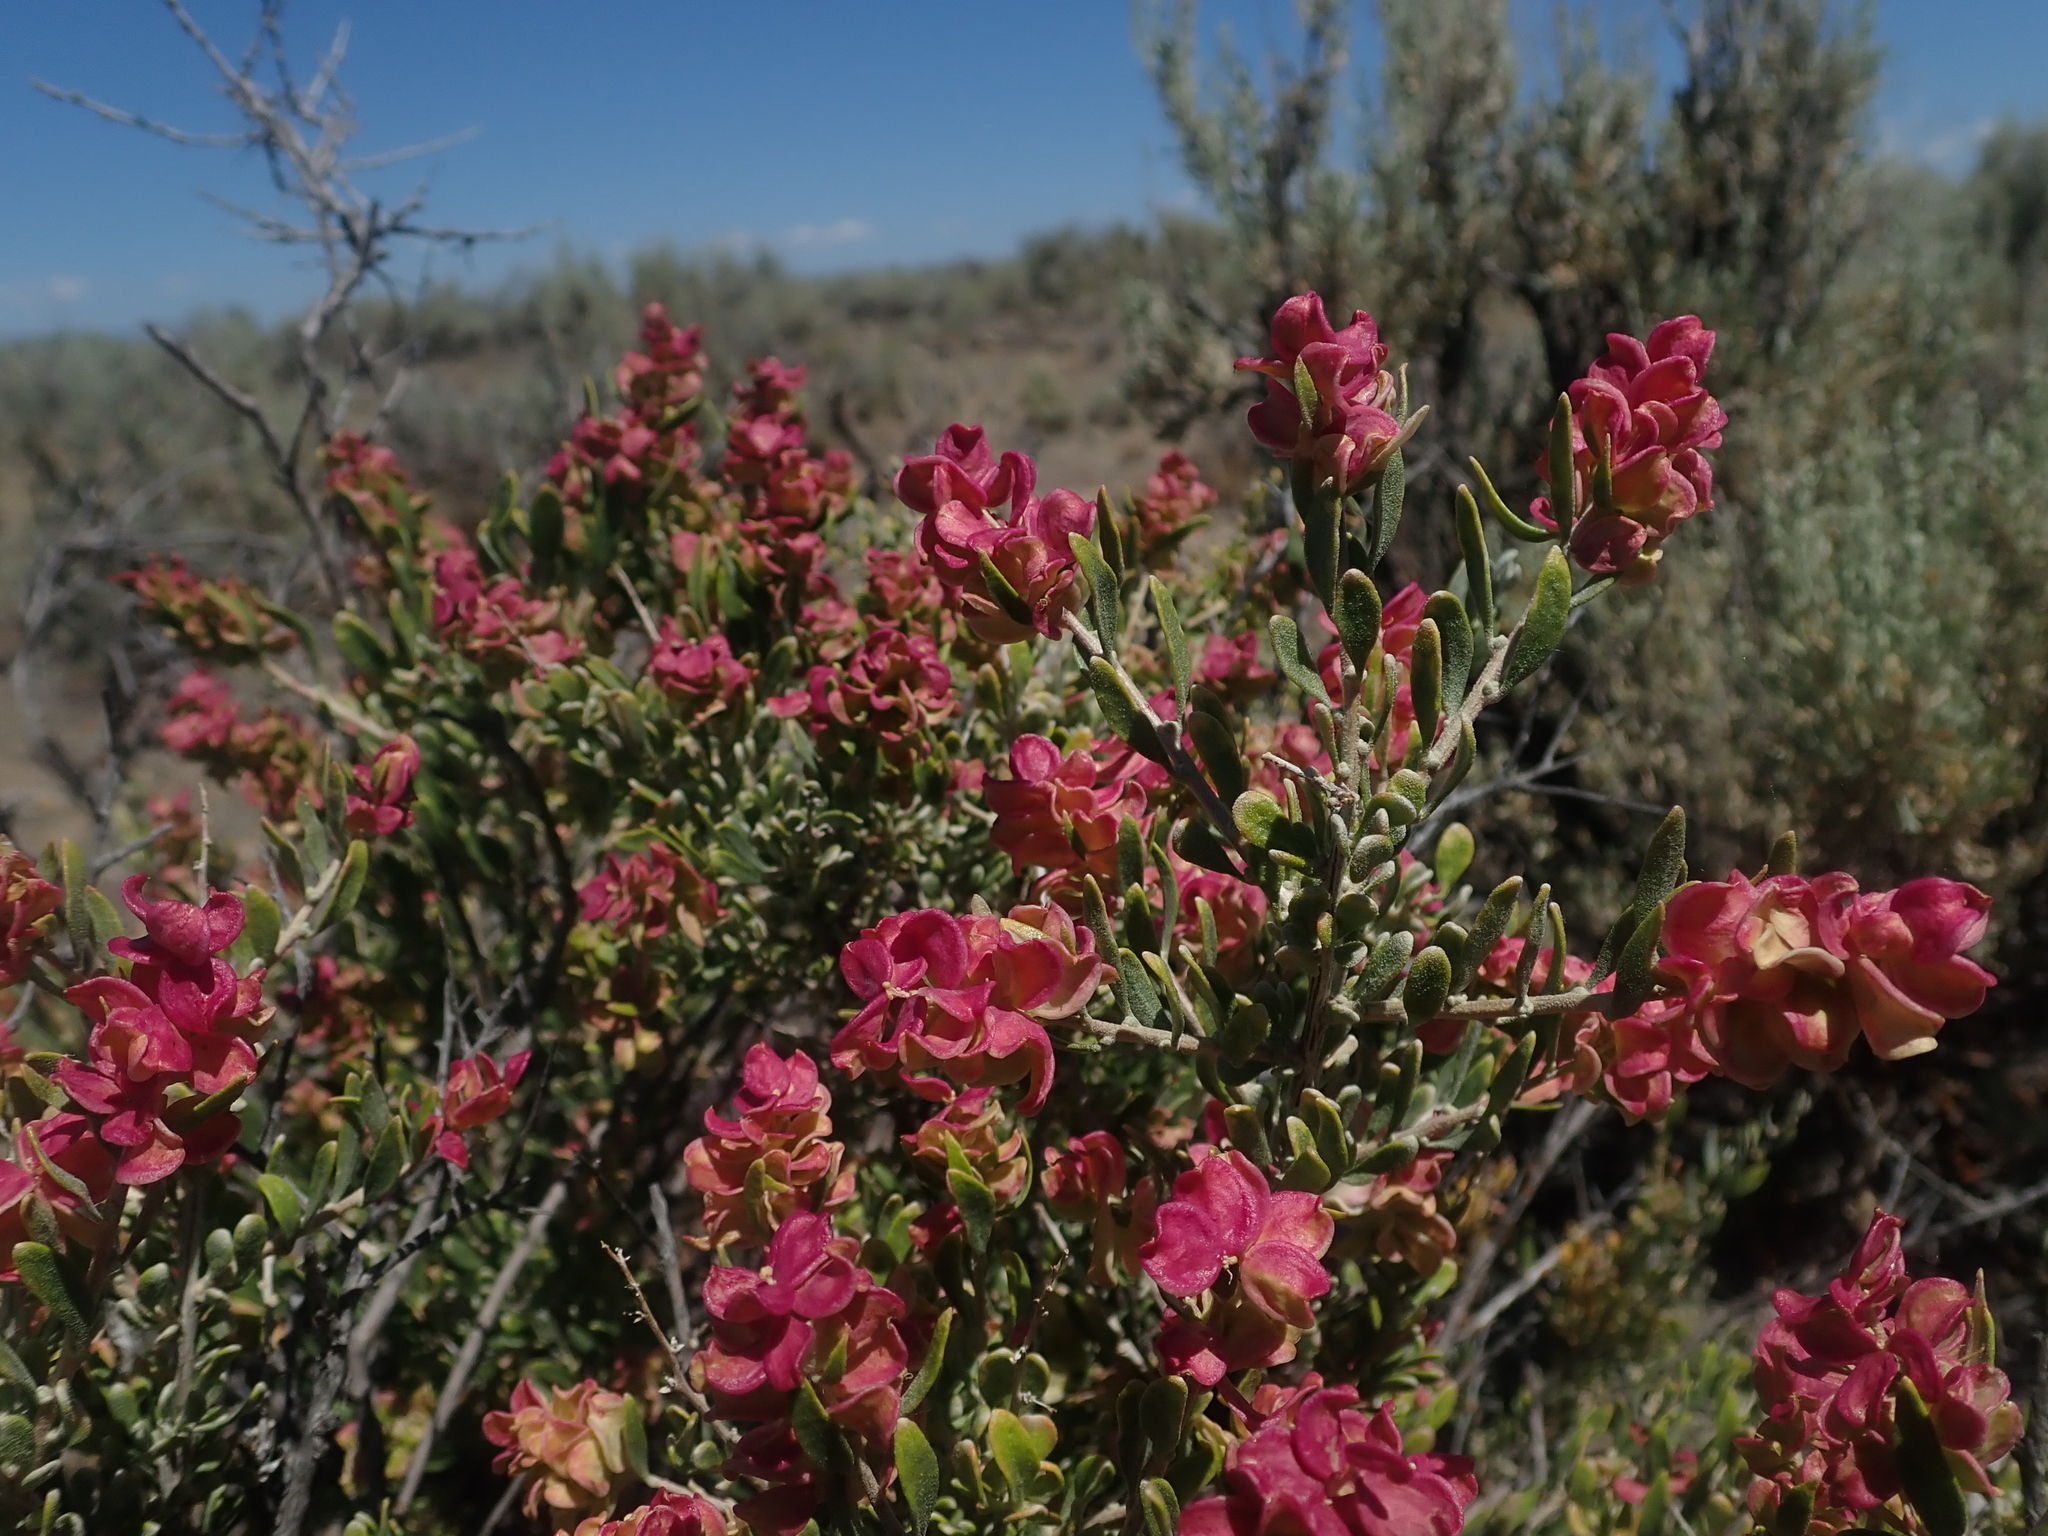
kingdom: Plantae
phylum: Tracheophyta
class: Magnoliopsida
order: Caryophyllales
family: Amaranthaceae
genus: Grayia
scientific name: Grayia spinosa
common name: Spiny hopsage
